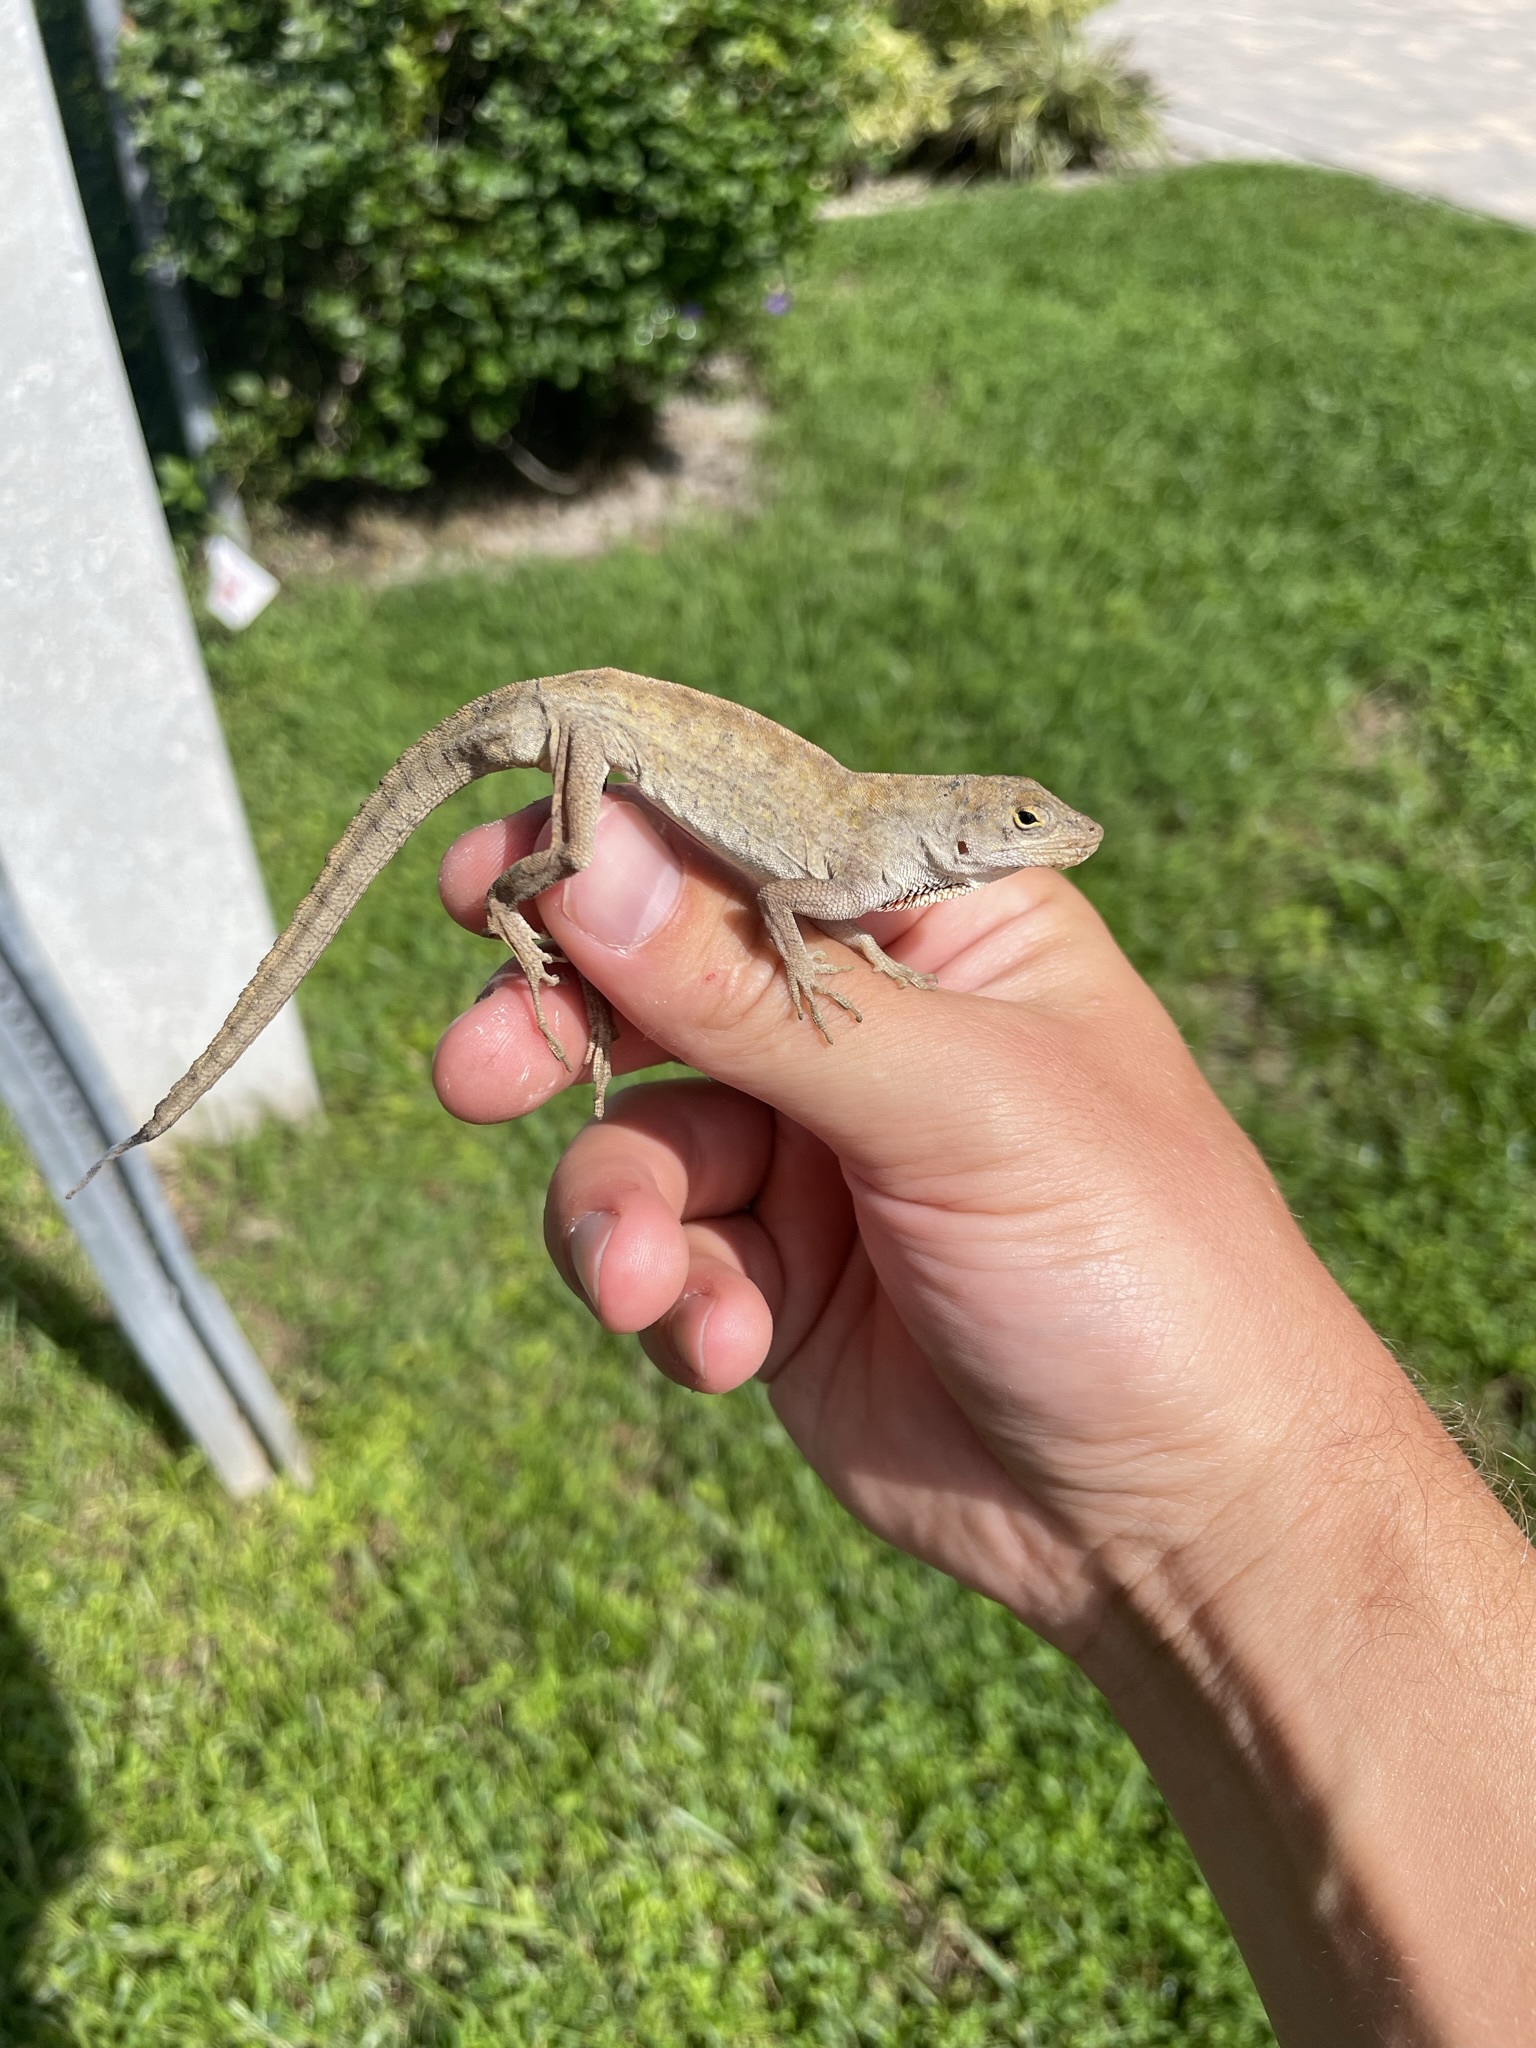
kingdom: Animalia
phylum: Chordata
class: Squamata
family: Dactyloidae
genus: Anolis
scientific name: Anolis sagrei
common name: Brown anole
